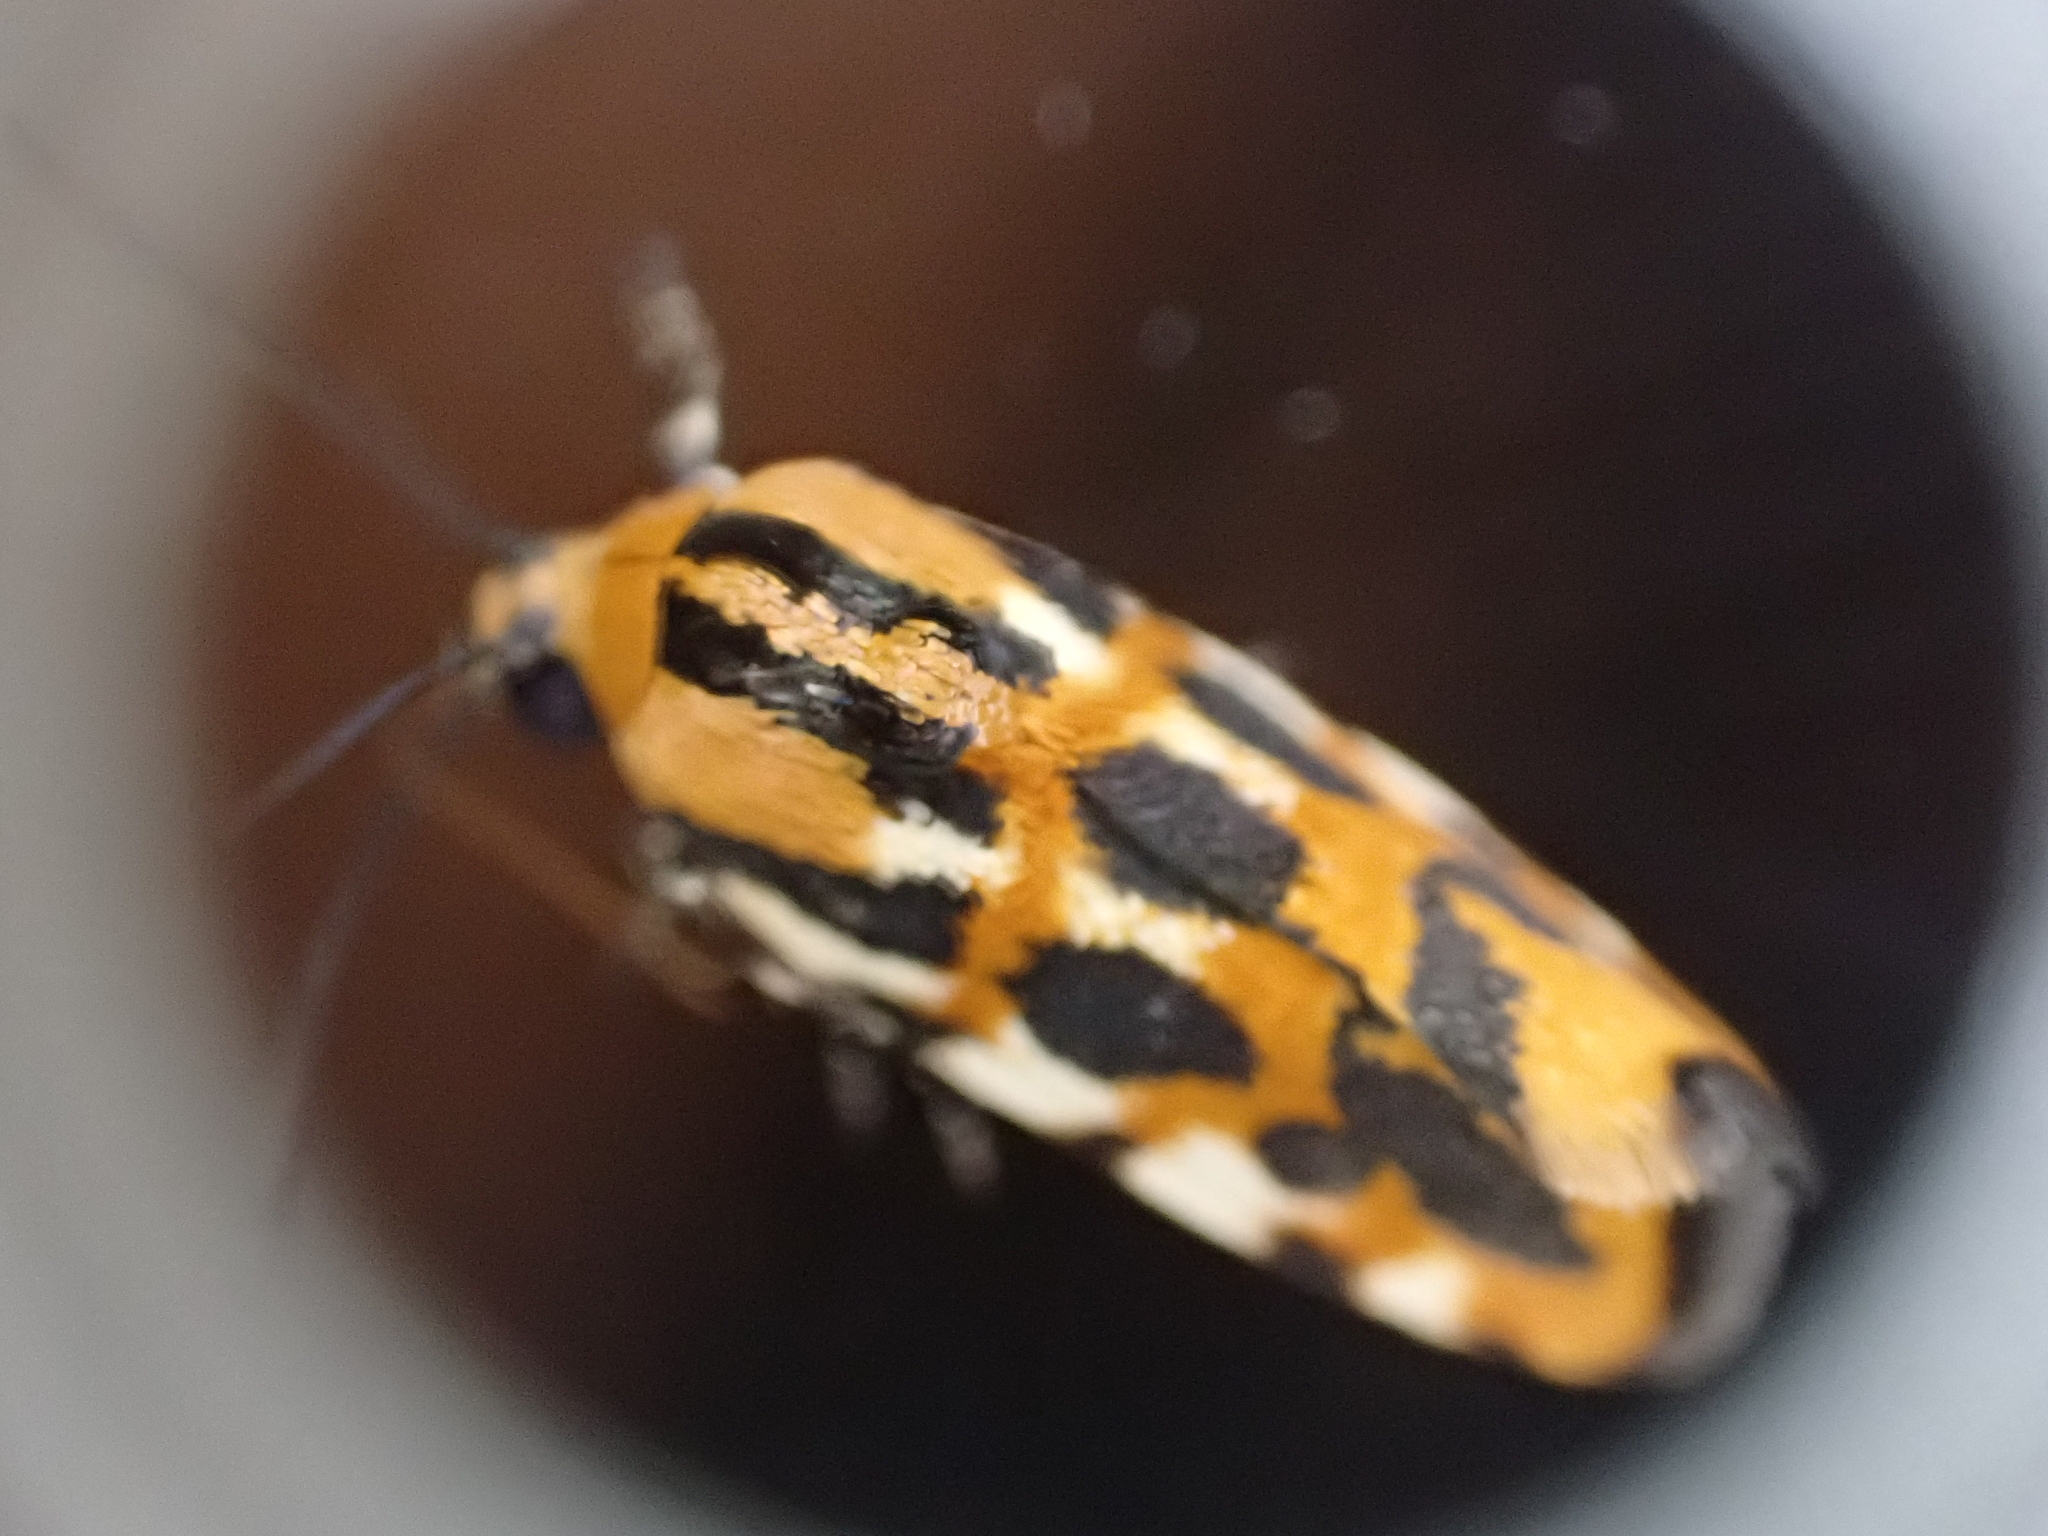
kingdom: Animalia
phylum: Arthropoda
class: Insecta
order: Lepidoptera
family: Noctuidae
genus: Acontia
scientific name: Acontia leo
